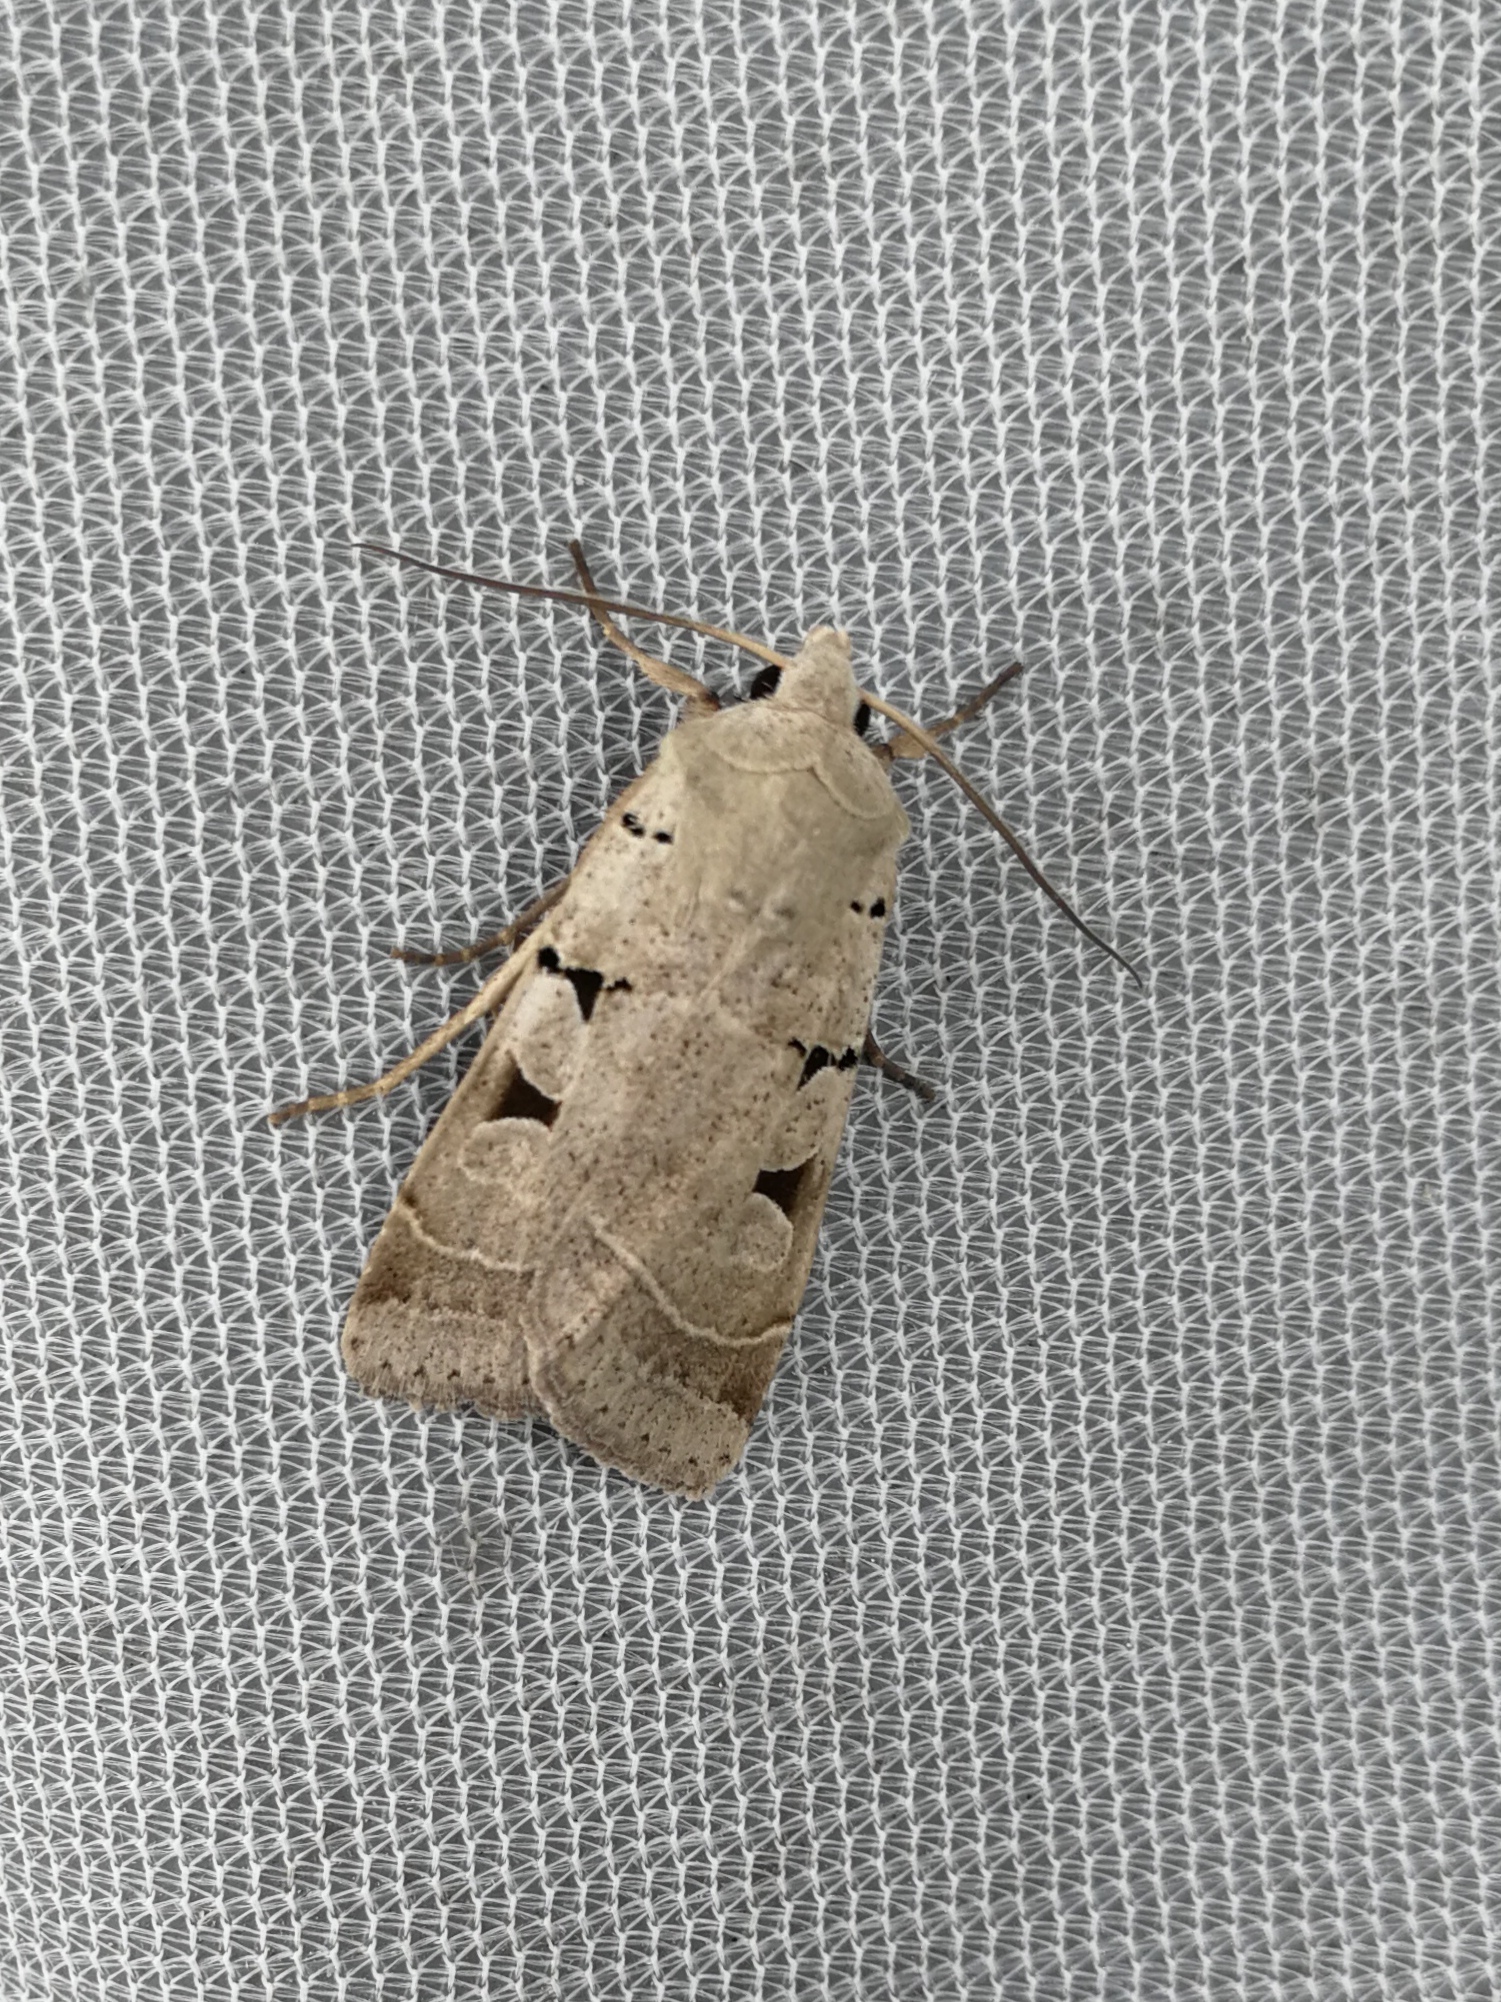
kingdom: Animalia
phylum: Arthropoda
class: Insecta
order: Lepidoptera
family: Noctuidae
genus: Eugnorisma
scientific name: Eugnorisma glareosa
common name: Autumnal rustic
